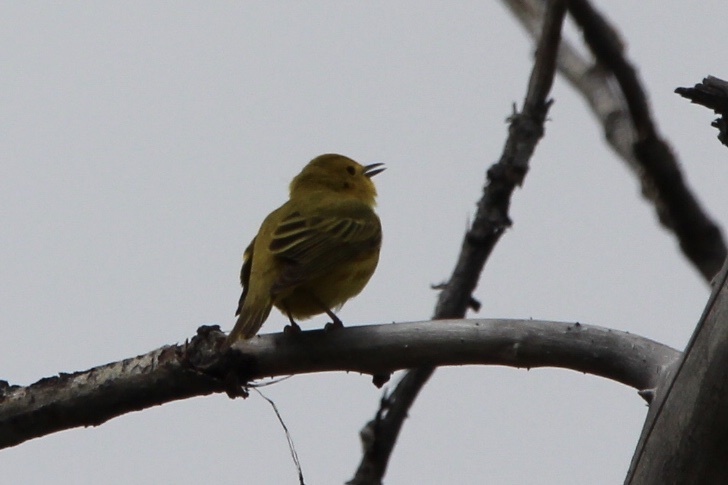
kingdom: Animalia
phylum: Chordata
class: Aves
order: Passeriformes
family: Parulidae
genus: Setophaga
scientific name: Setophaga petechia
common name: Yellow warbler
